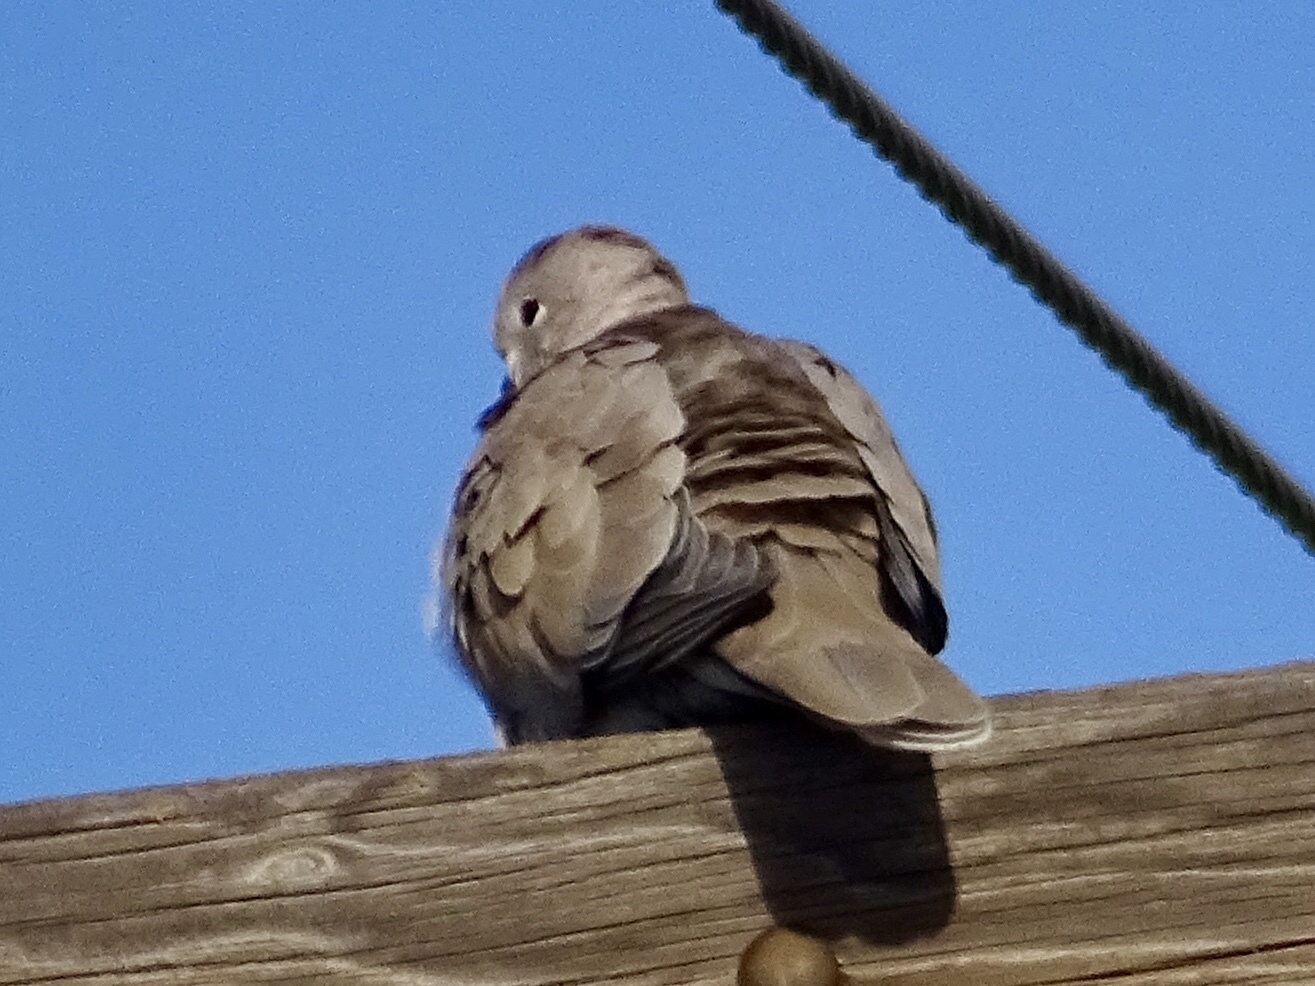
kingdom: Animalia
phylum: Chordata
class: Aves
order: Columbiformes
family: Columbidae
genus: Streptopelia
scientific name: Streptopelia decaocto
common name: Eurasian collared dove
